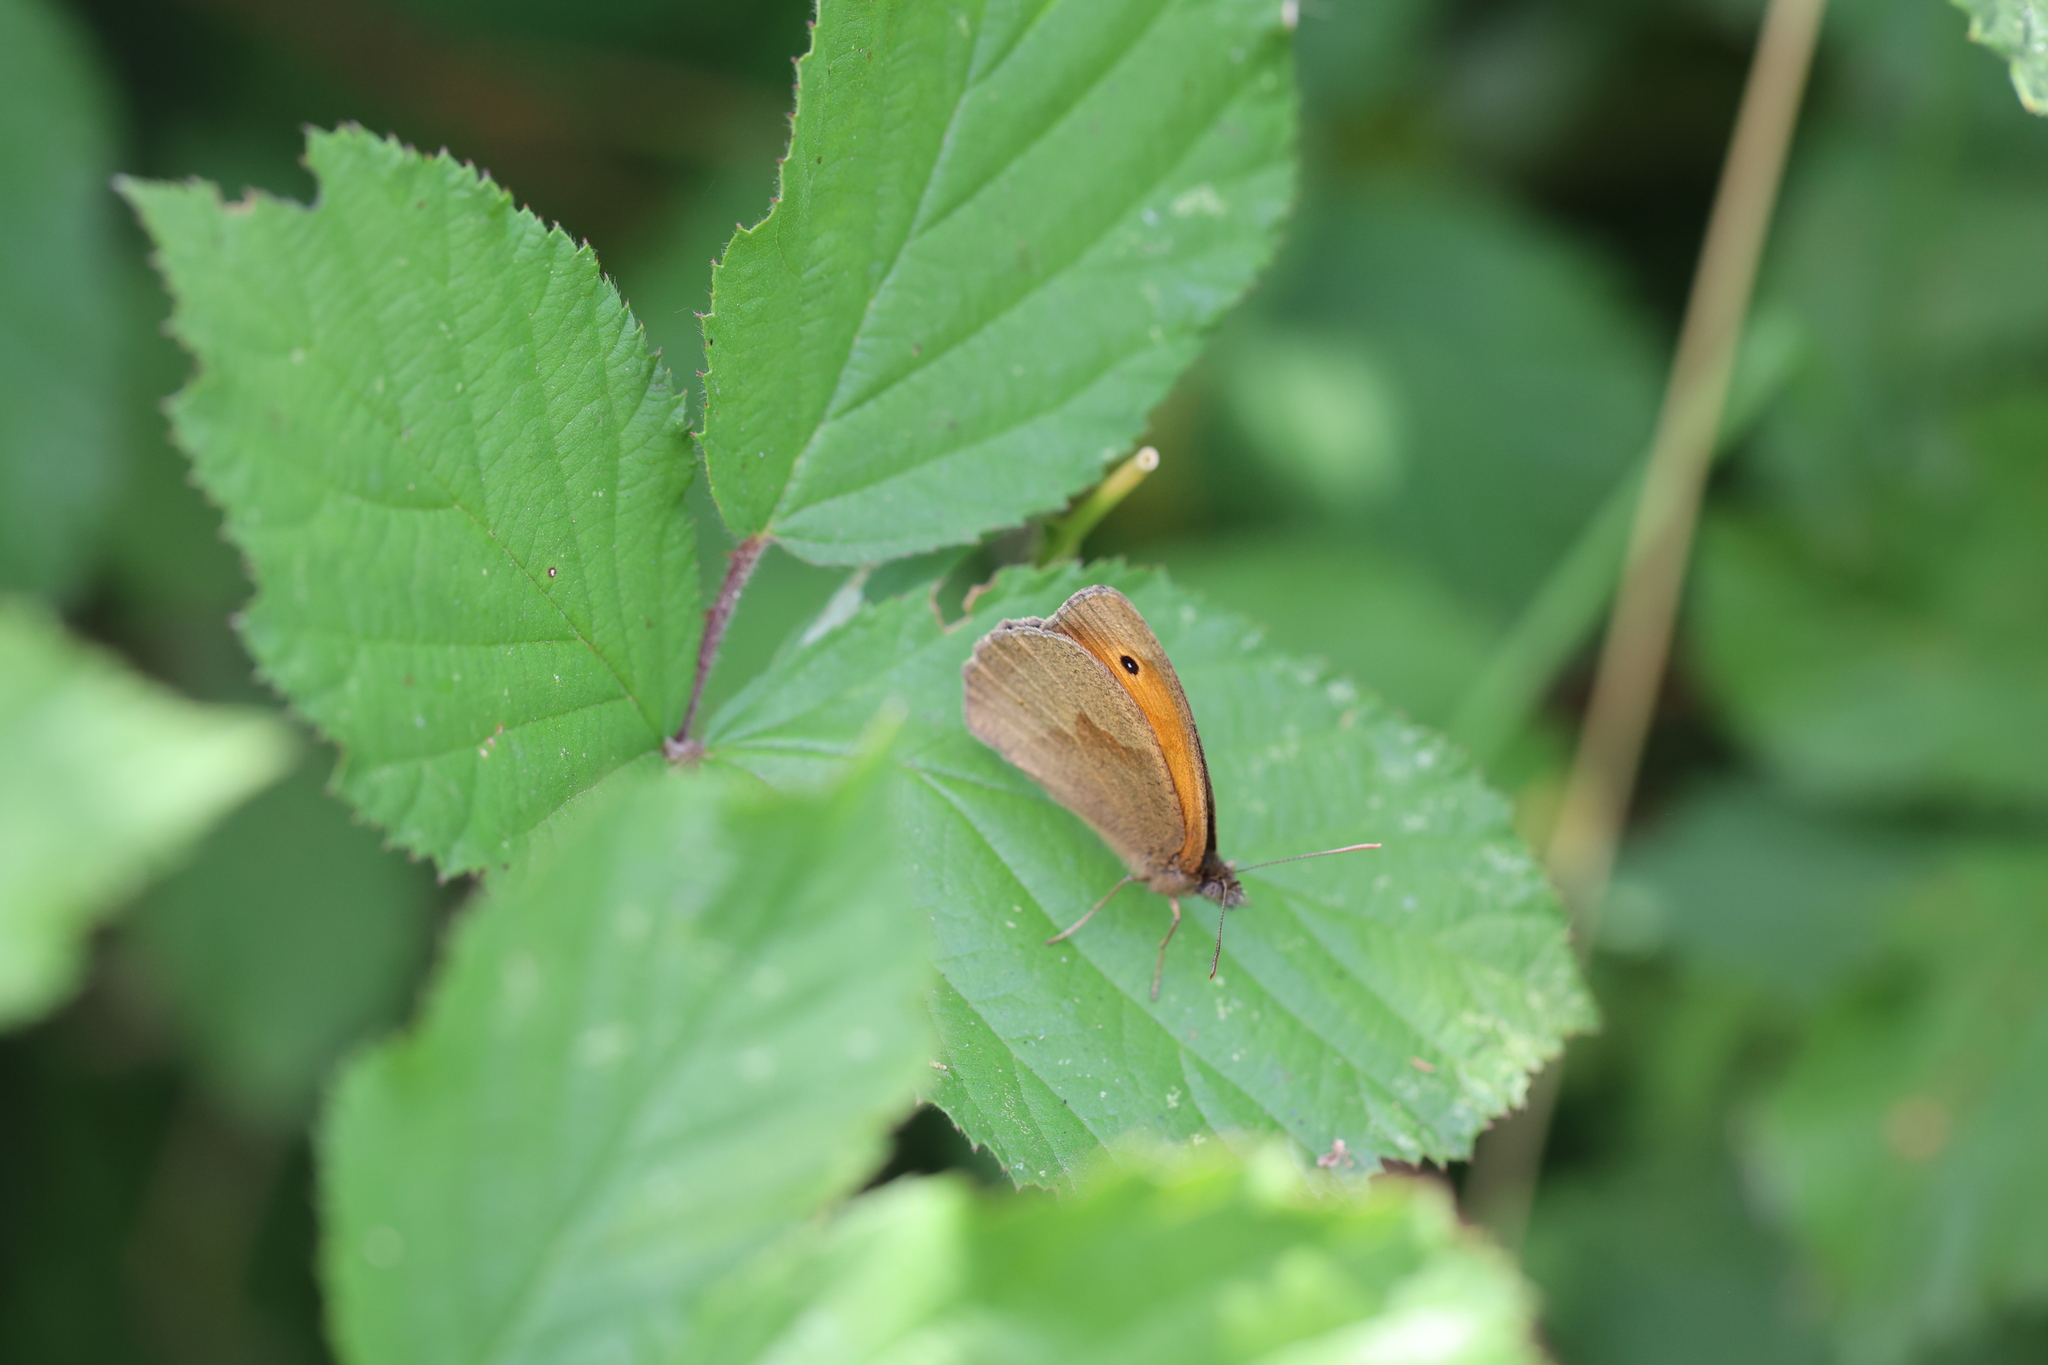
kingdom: Animalia
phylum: Arthropoda
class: Insecta
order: Lepidoptera
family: Nymphalidae
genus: Maniola
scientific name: Maniola jurtina
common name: Meadow brown
